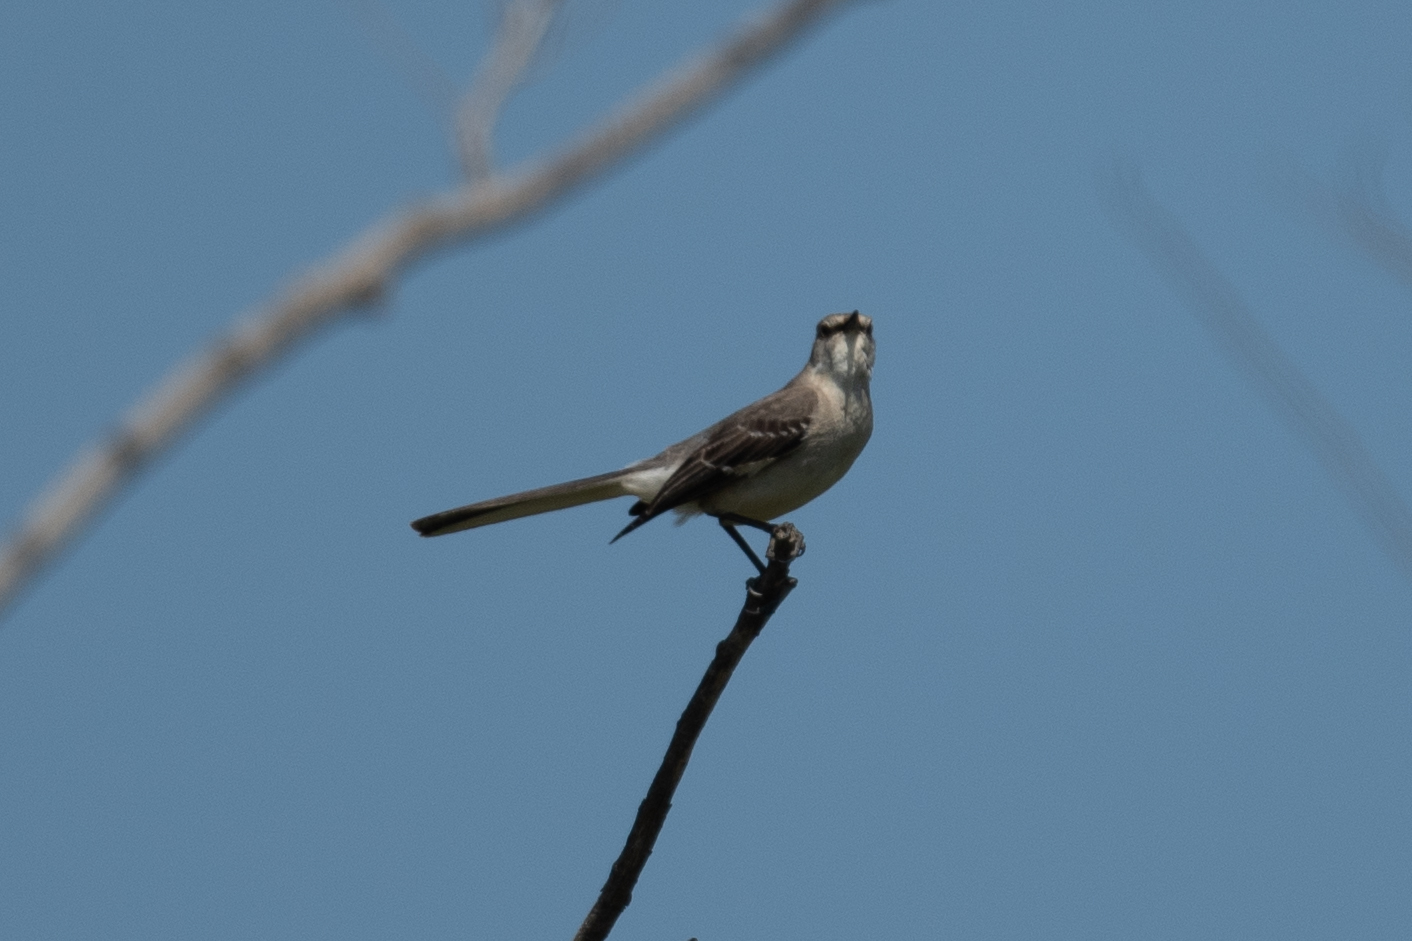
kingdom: Animalia
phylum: Chordata
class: Aves
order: Passeriformes
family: Mimidae
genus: Mimus
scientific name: Mimus polyglottos
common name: Northern mockingbird
